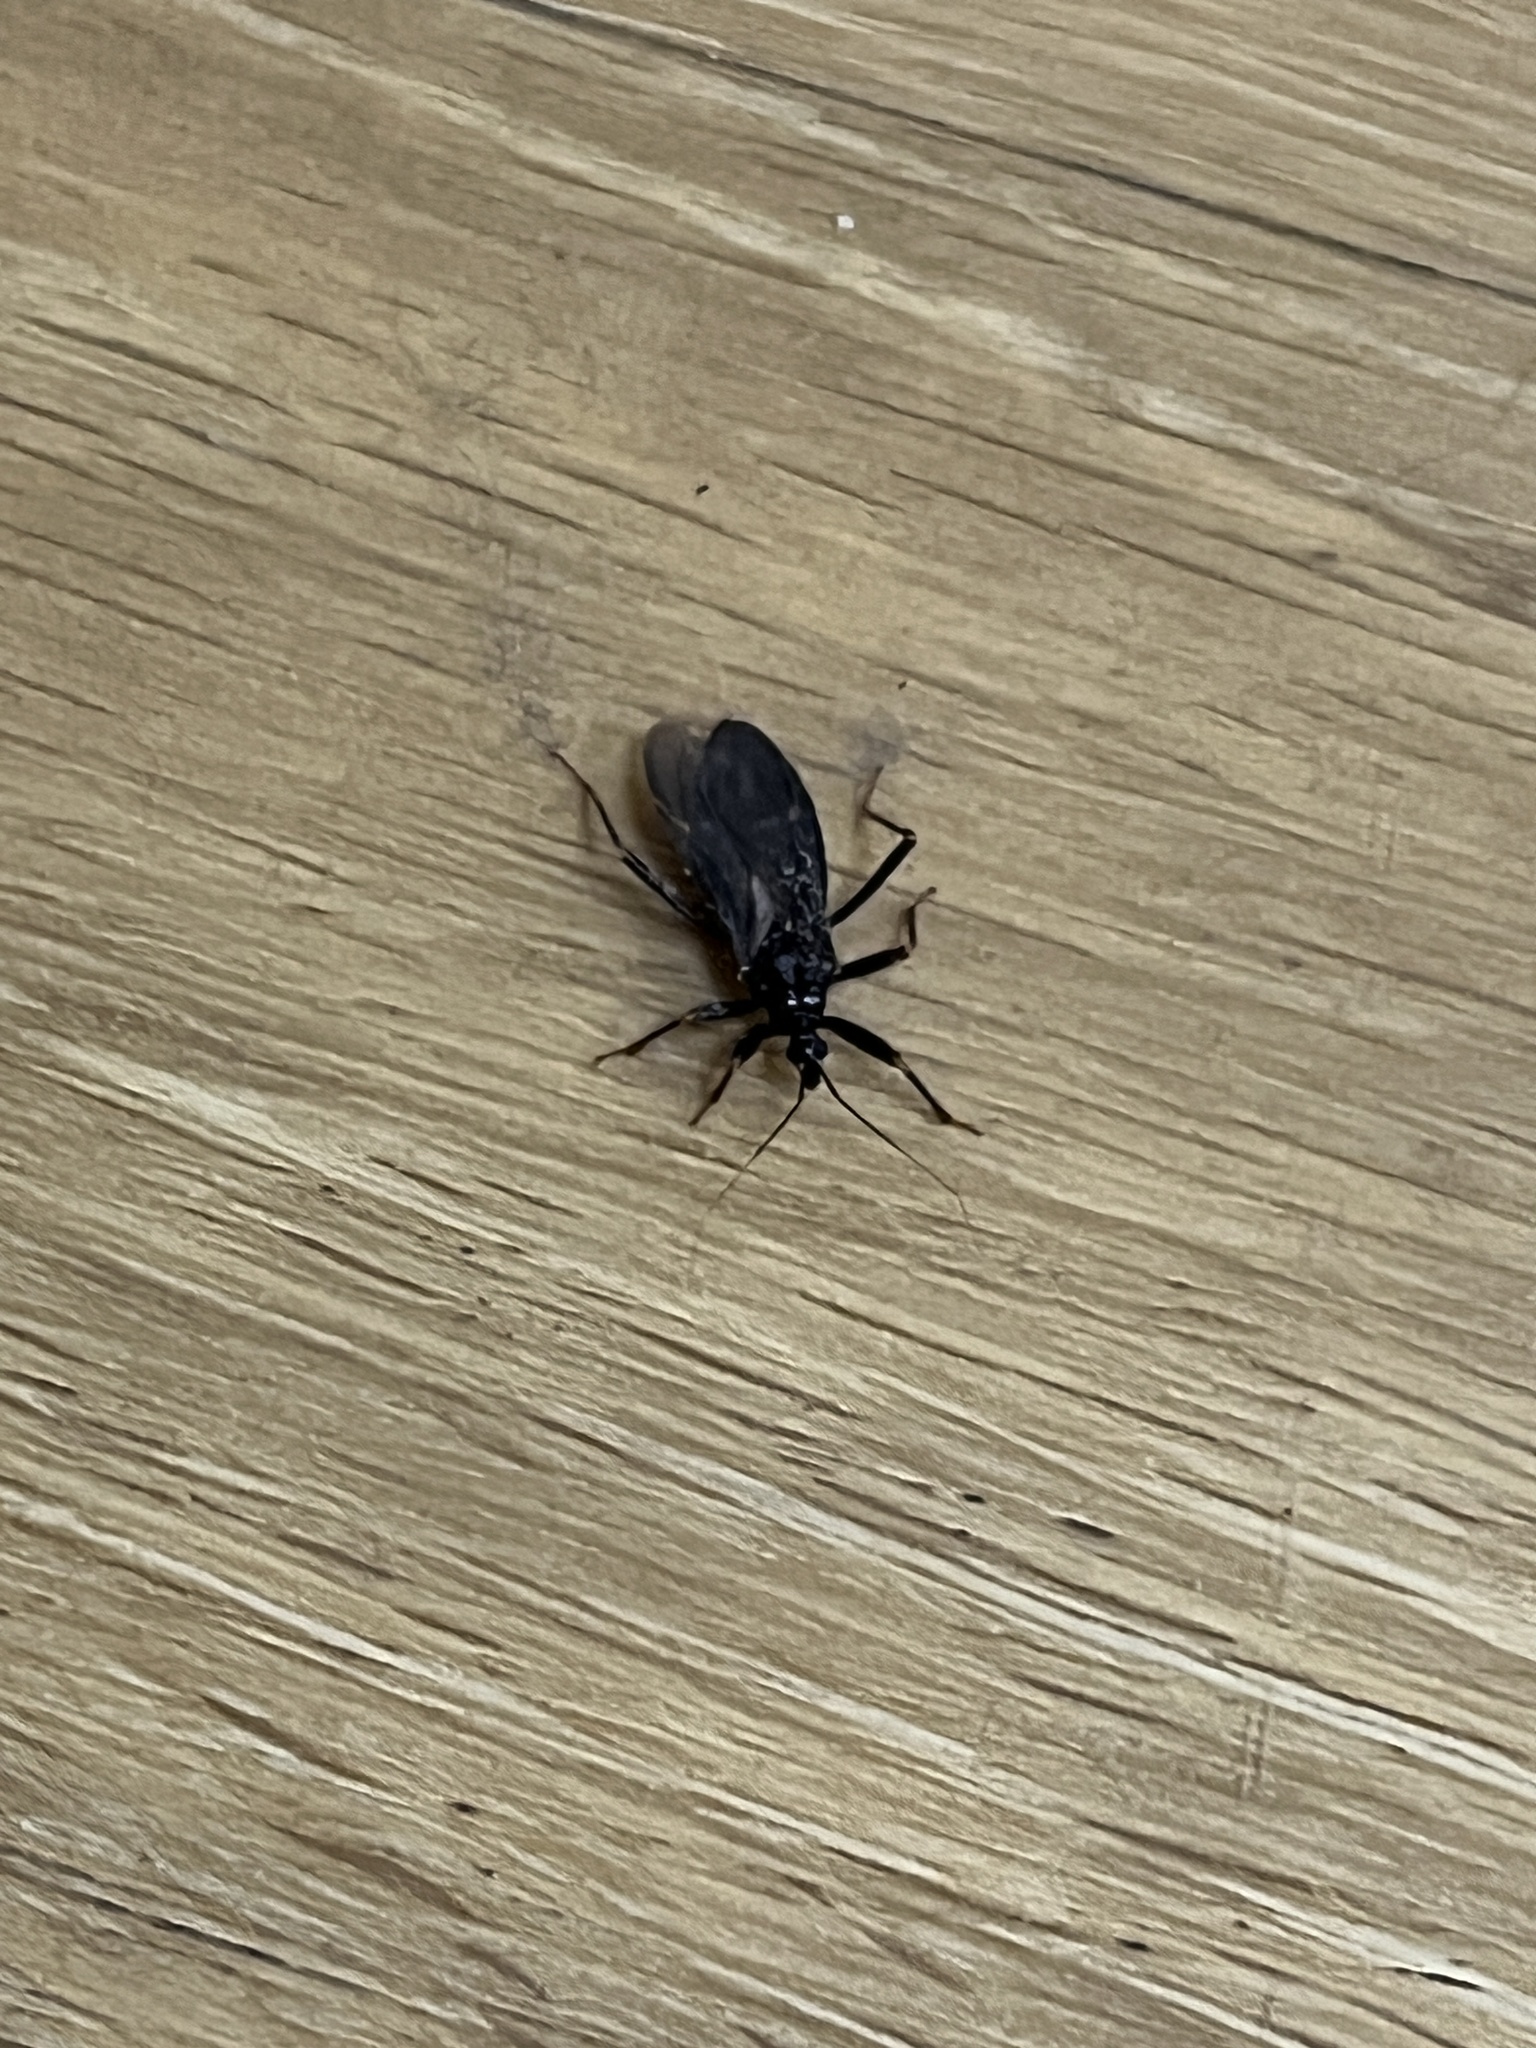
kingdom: Animalia
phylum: Arthropoda
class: Insecta
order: Hemiptera
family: Reduviidae
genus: Reduvius
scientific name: Reduvius personatus
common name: Masked hunter
